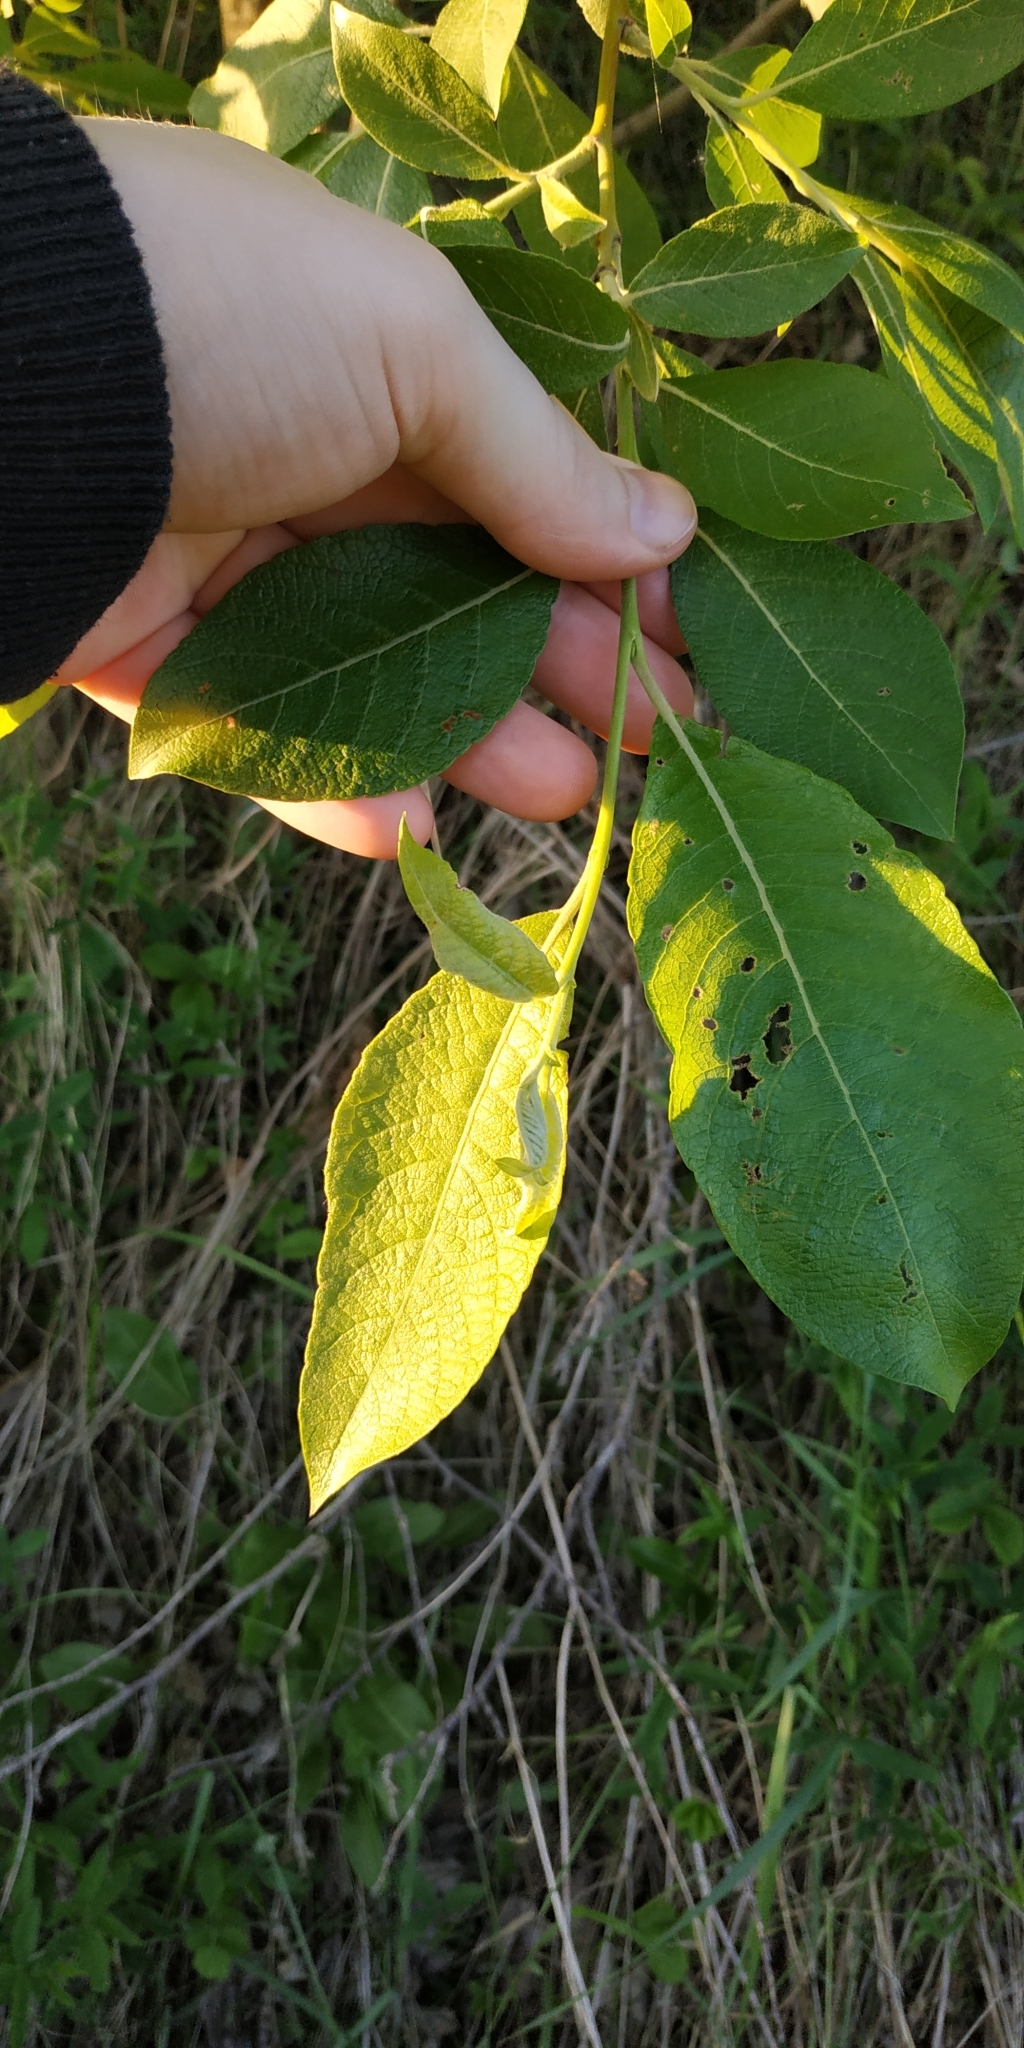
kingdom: Plantae
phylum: Tracheophyta
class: Magnoliopsida
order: Malpighiales
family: Salicaceae
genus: Salix
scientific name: Salix caprea
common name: Goat willow
